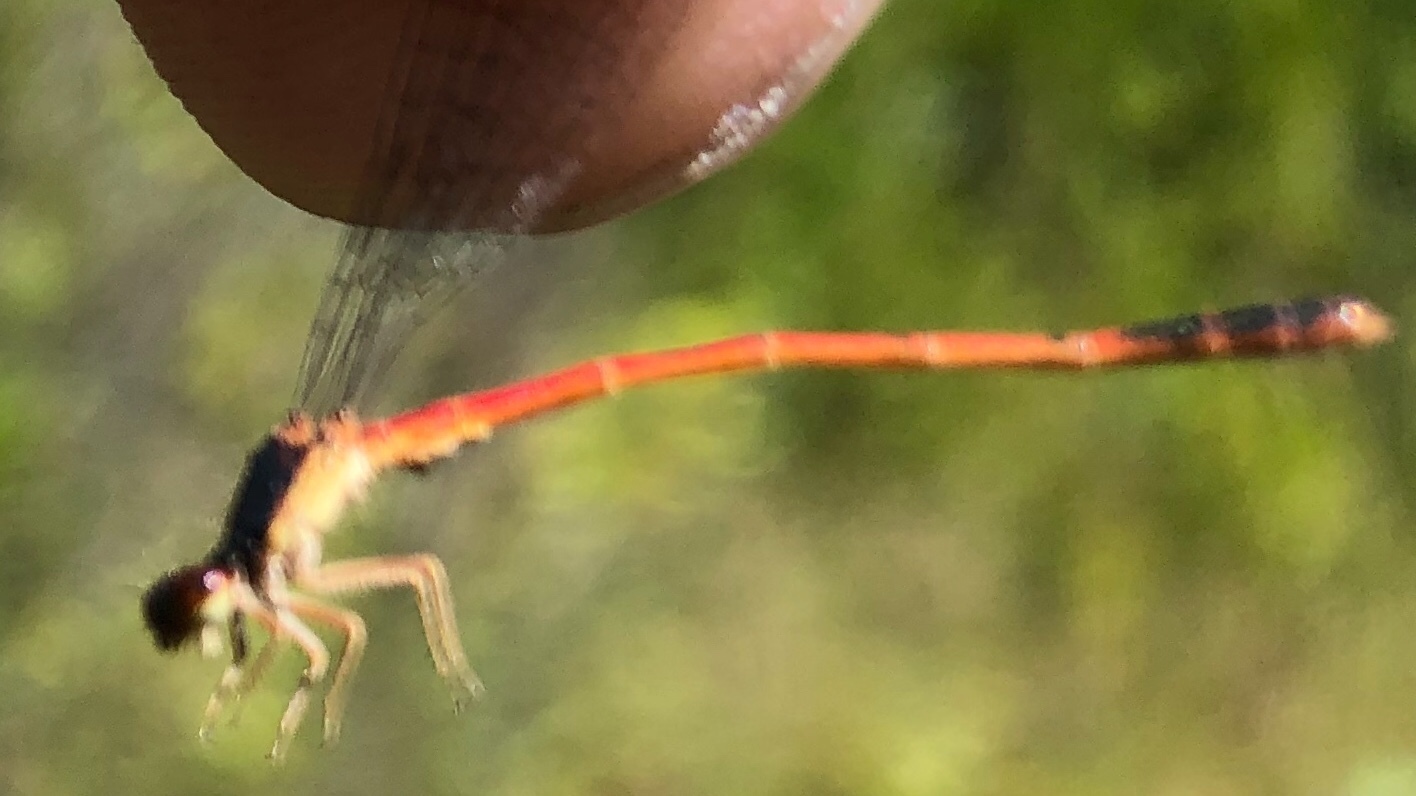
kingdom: Animalia
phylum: Arthropoda
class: Insecta
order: Odonata
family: Coenagrionidae
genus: Amphiagrion
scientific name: Amphiagrion saucium
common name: Eastern red damsel
